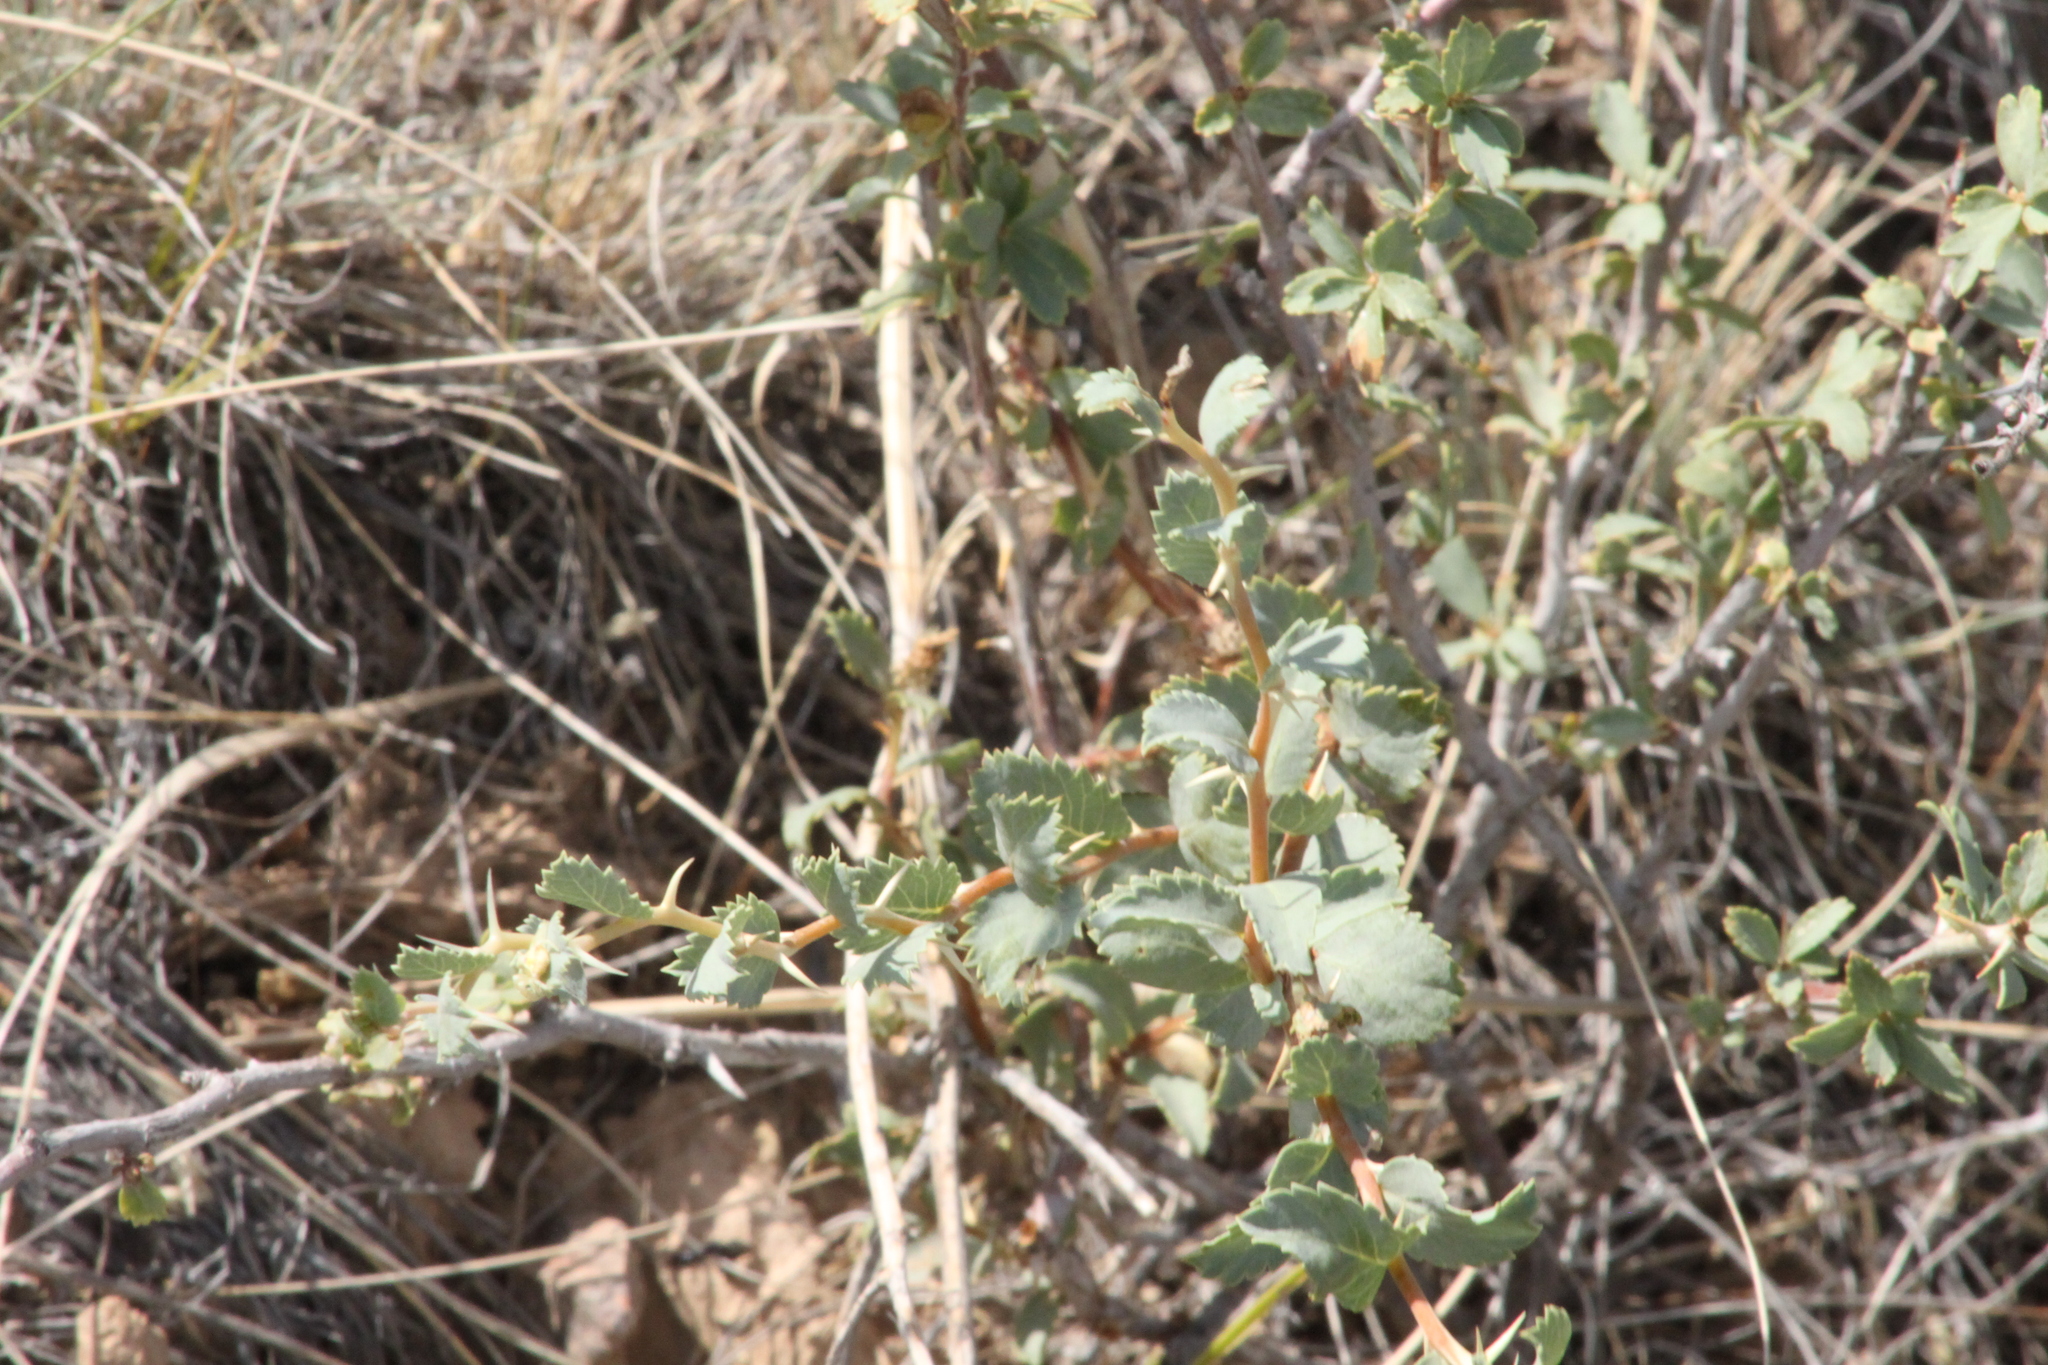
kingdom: Plantae
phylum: Tracheophyta
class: Magnoliopsida
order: Rosales
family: Rosaceae
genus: Rosa
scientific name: Rosa persica
